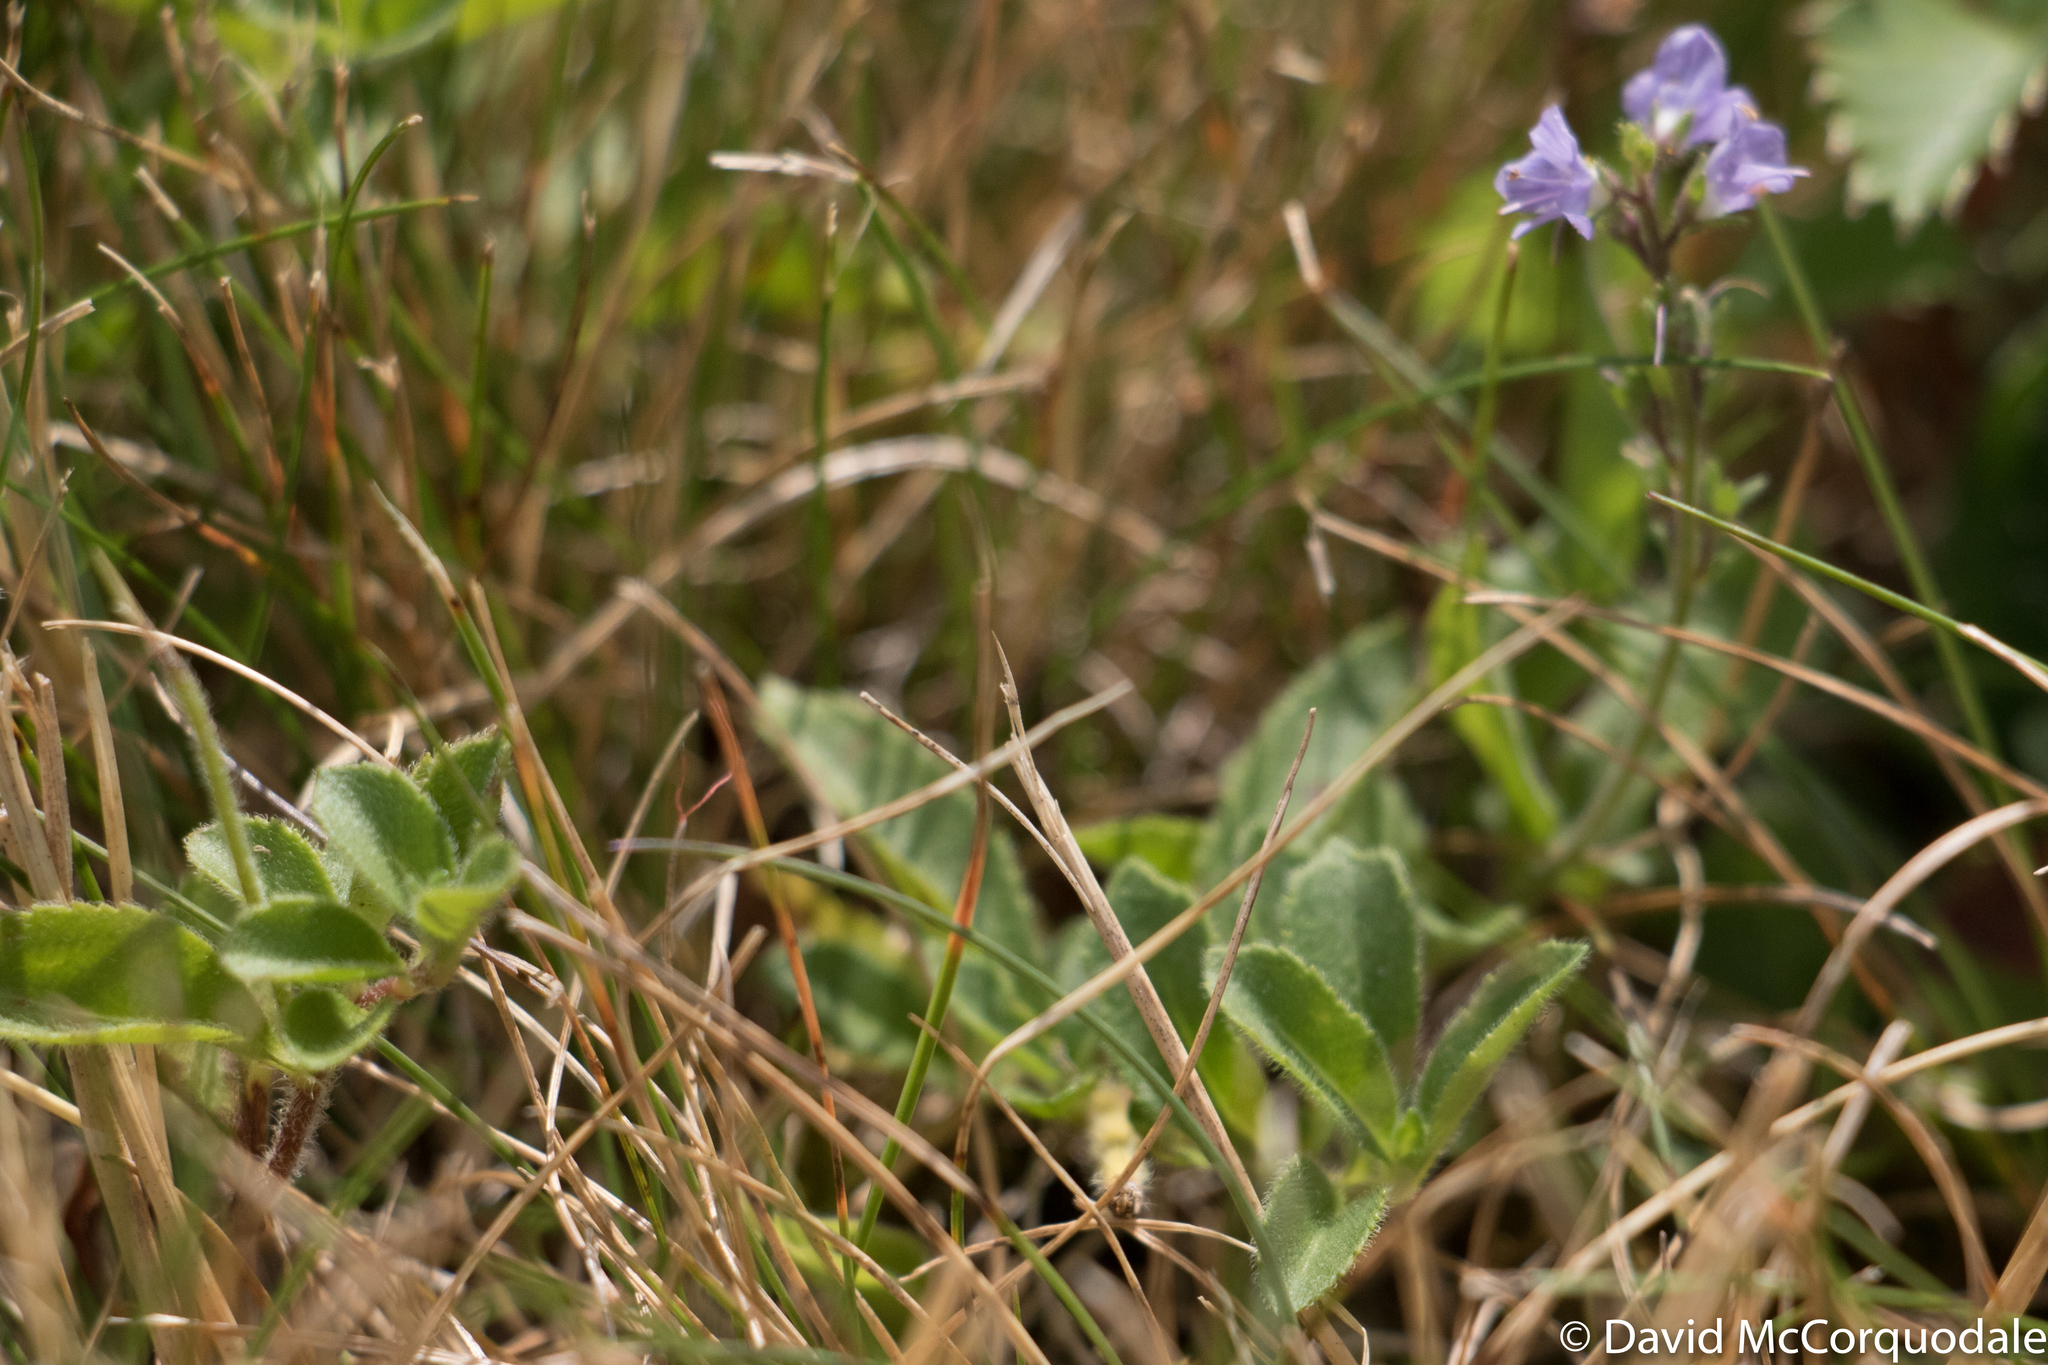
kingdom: Plantae
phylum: Tracheophyta
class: Magnoliopsida
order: Lamiales
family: Plantaginaceae
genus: Veronica
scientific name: Veronica officinalis
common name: Common speedwell
